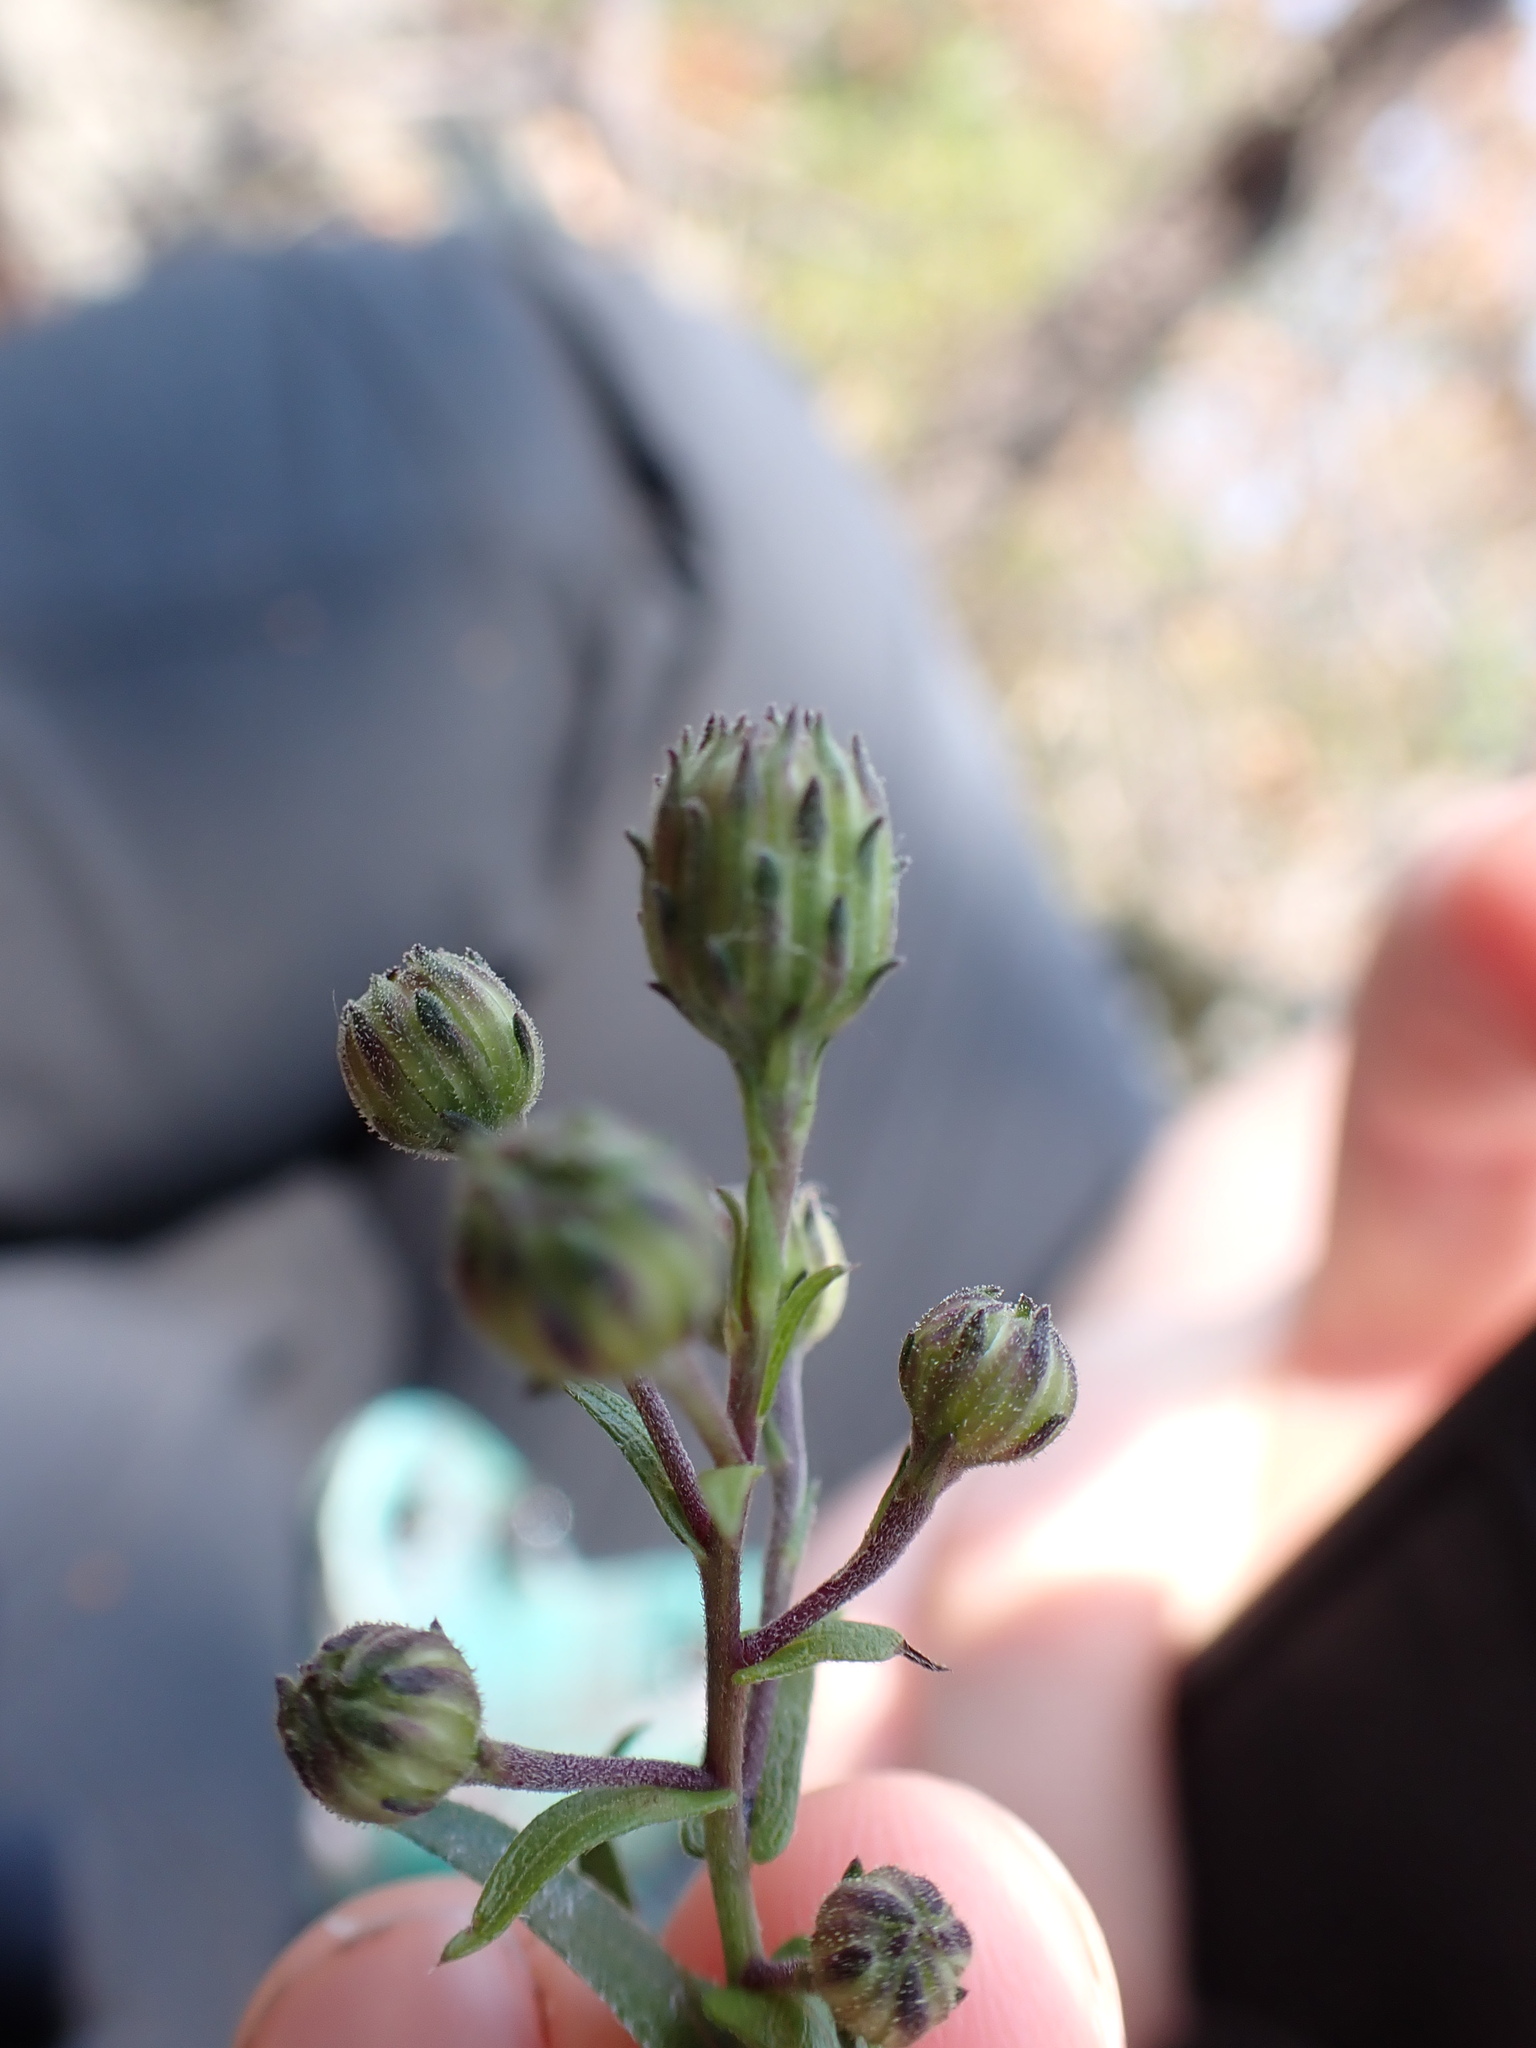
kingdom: Plantae
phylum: Tracheophyta
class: Magnoliopsida
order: Asterales
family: Asteraceae
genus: Symphyotrichum
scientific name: Symphyotrichum patens
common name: Late purple aster
